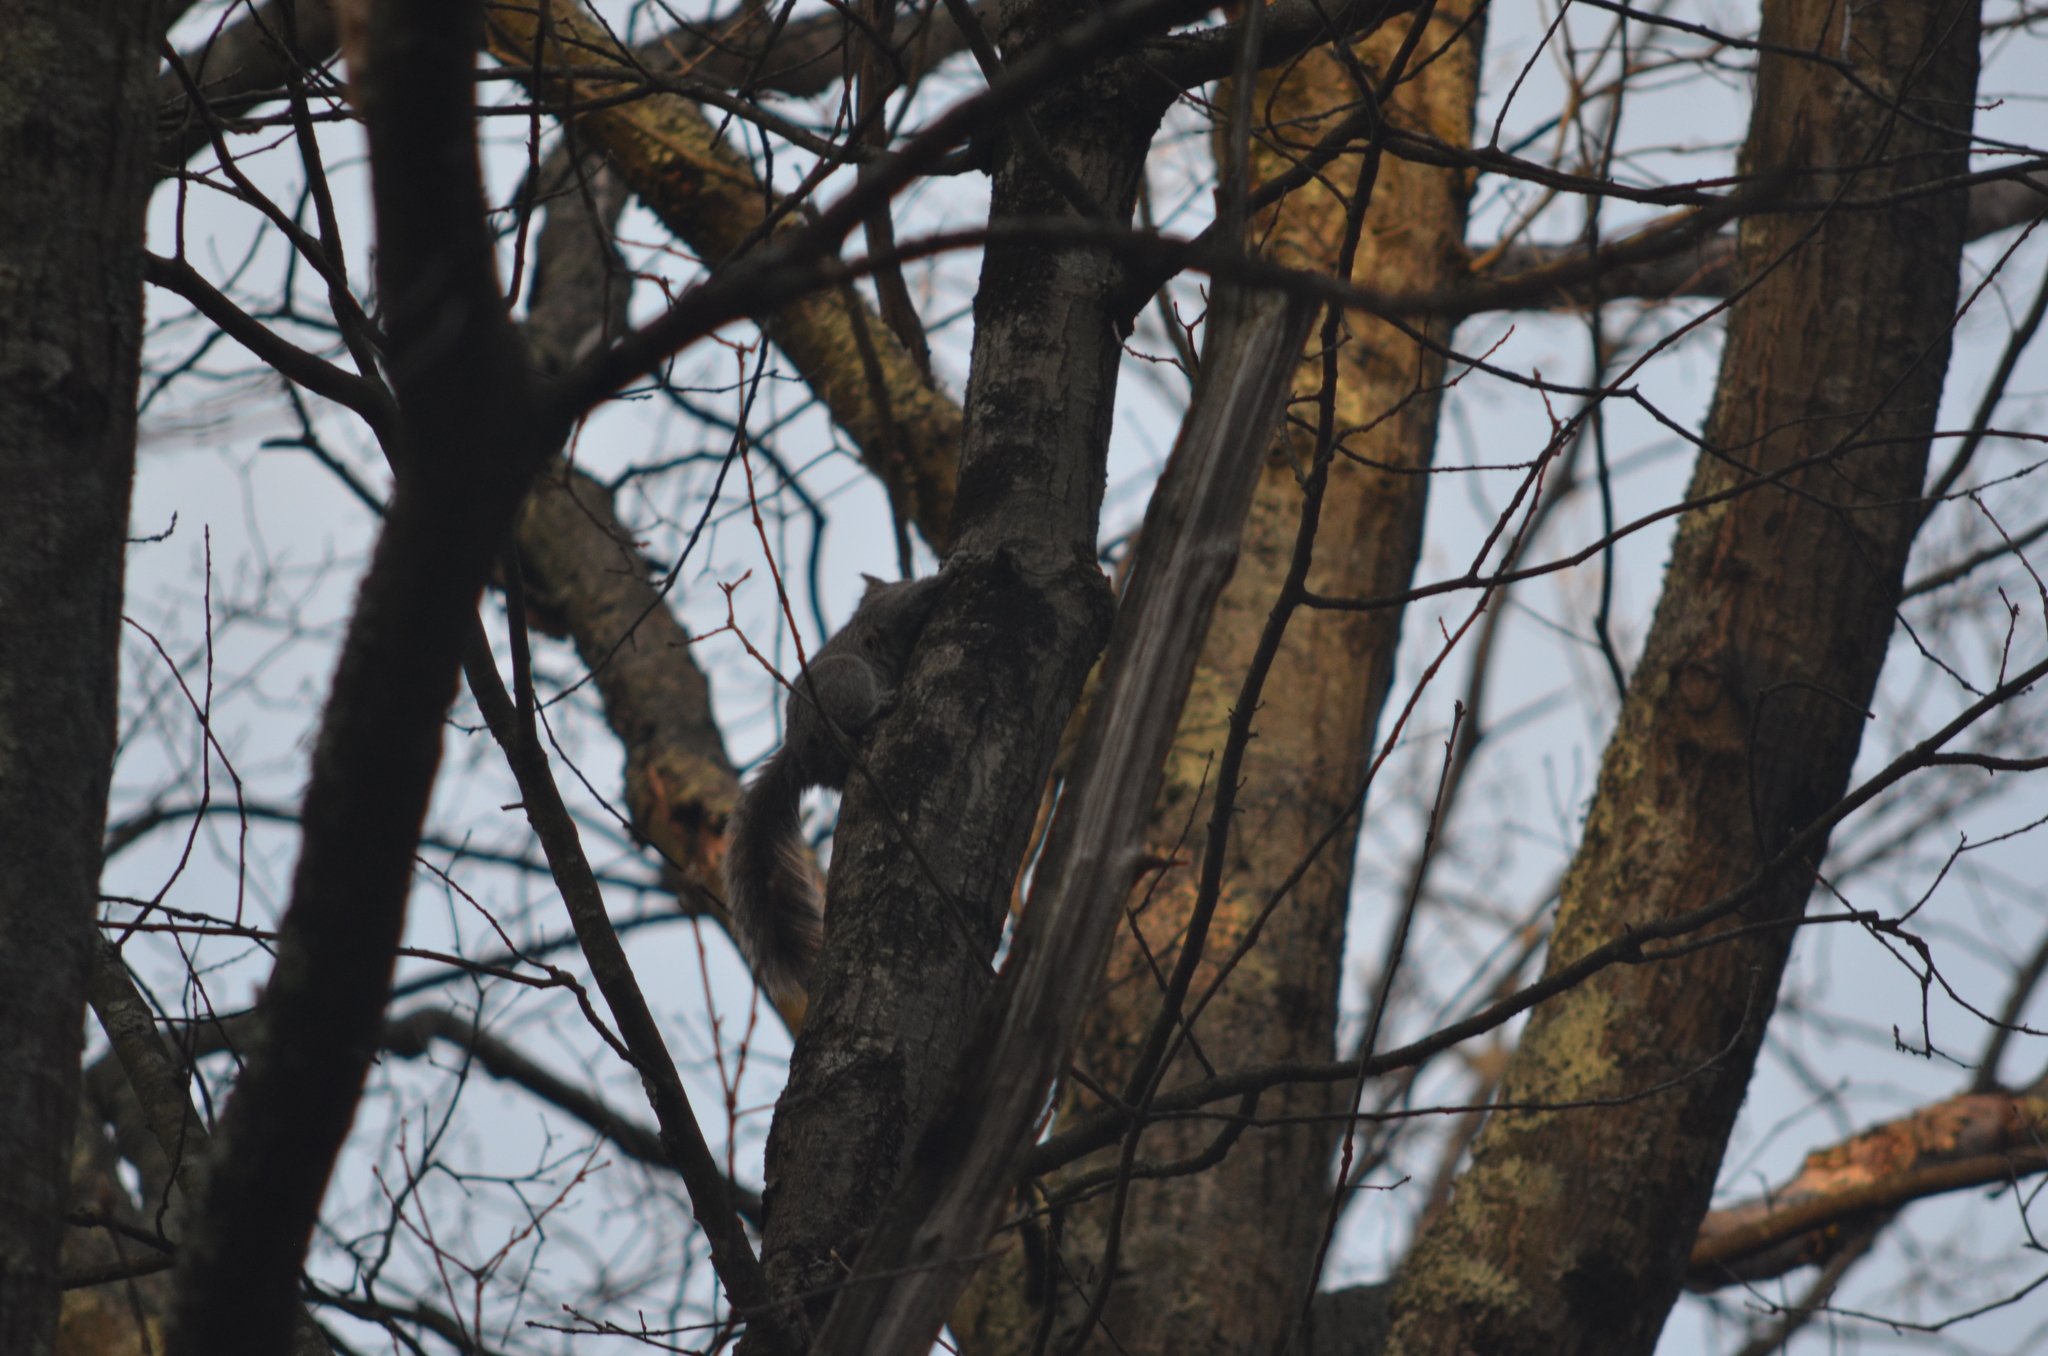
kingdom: Animalia
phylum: Chordata
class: Mammalia
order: Rodentia
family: Sciuridae
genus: Sciurus
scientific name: Sciurus carolinensis
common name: Eastern gray squirrel
